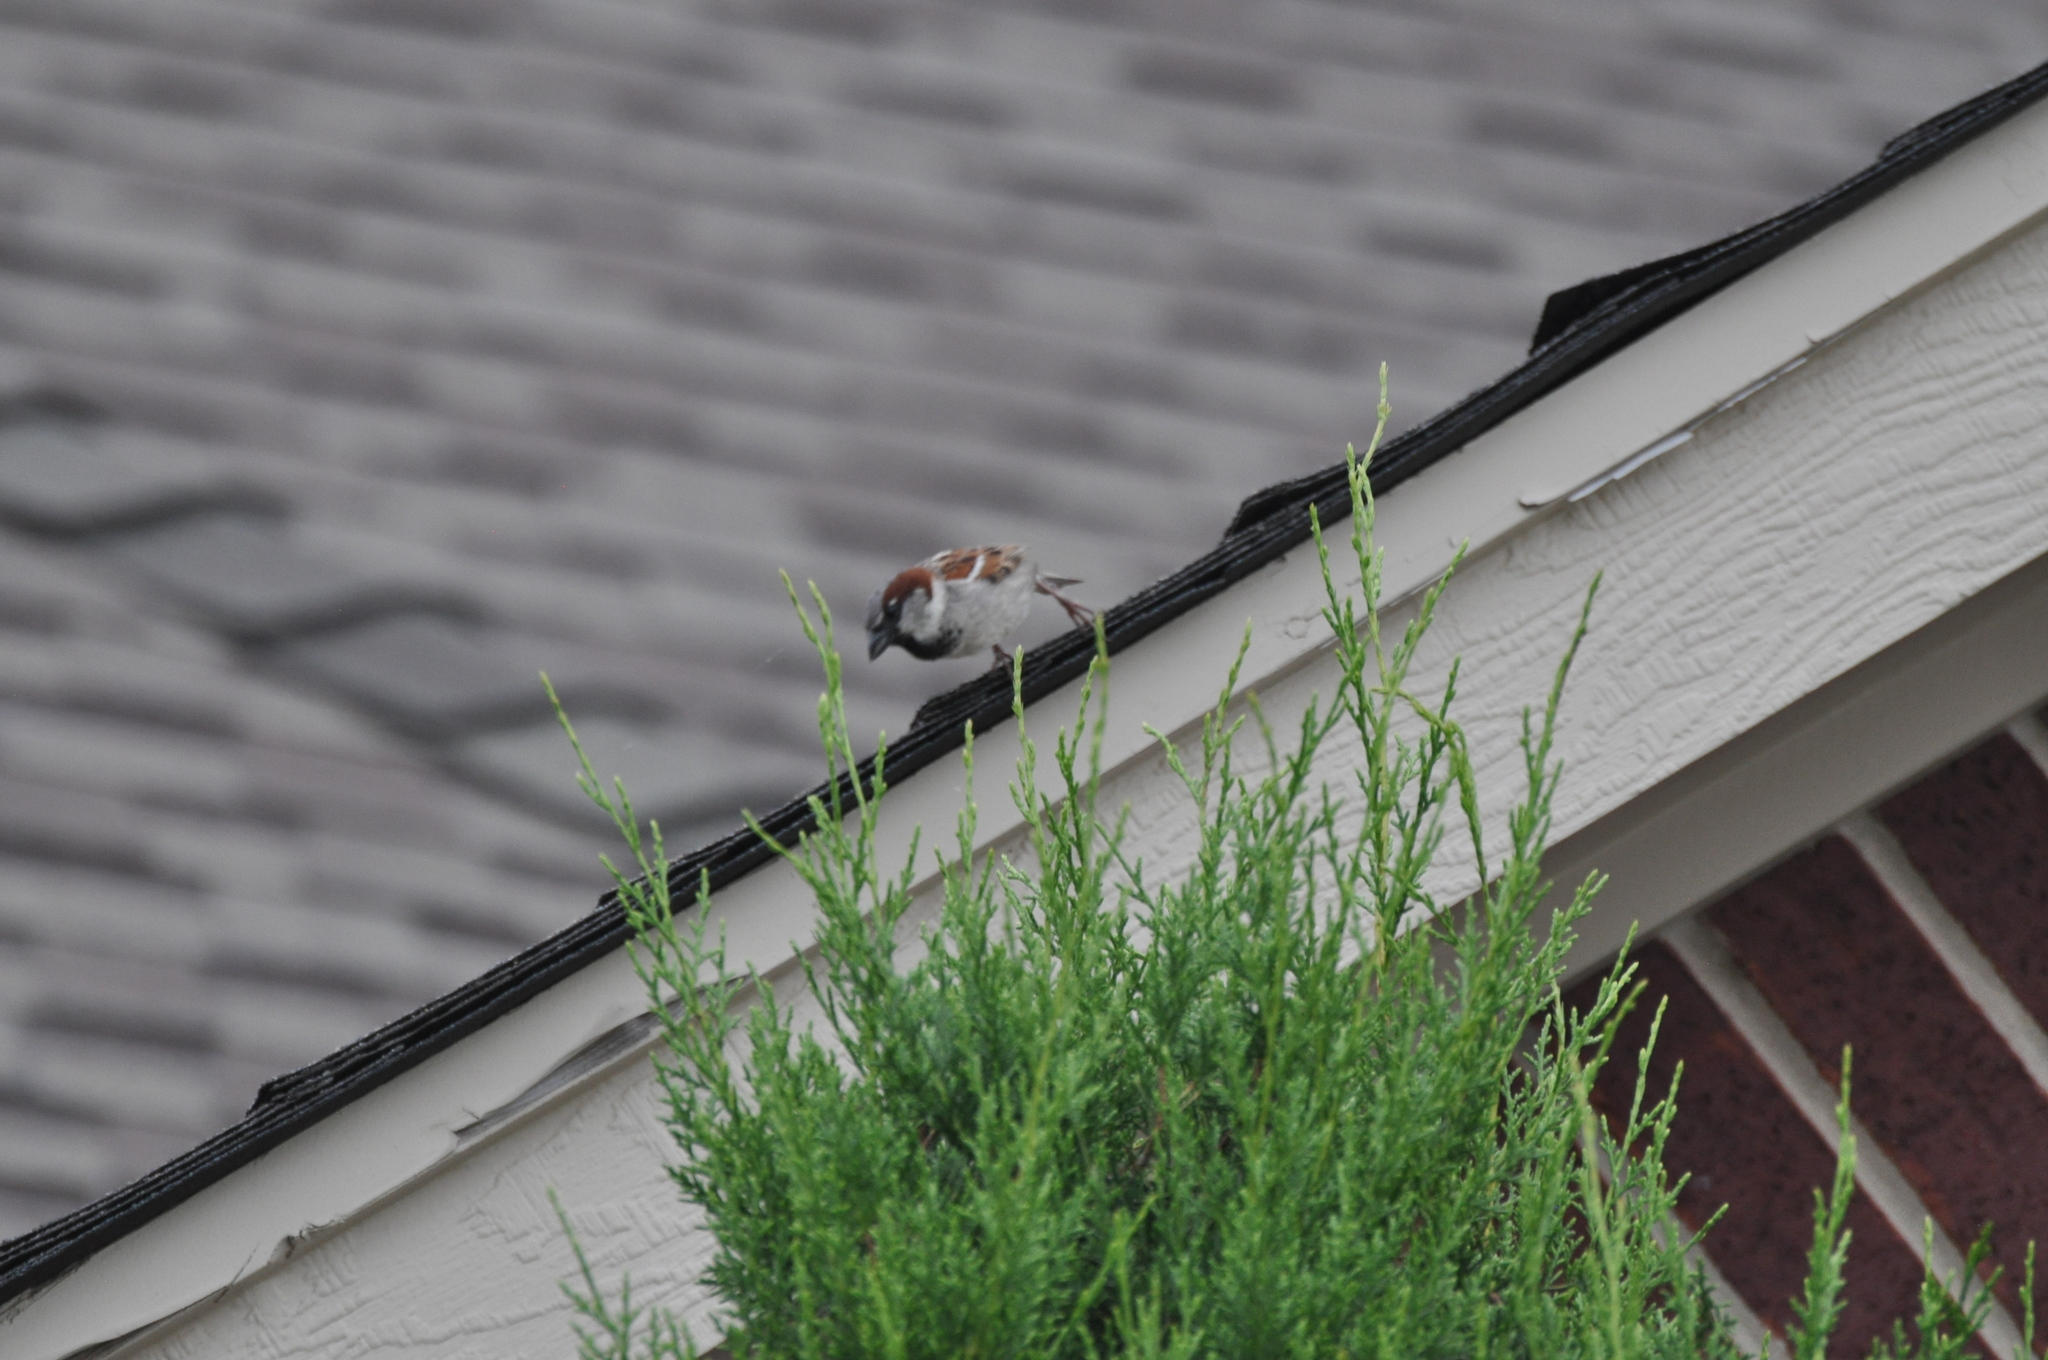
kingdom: Animalia
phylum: Chordata
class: Aves
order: Passeriformes
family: Passeridae
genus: Passer
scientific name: Passer domesticus
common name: House sparrow
